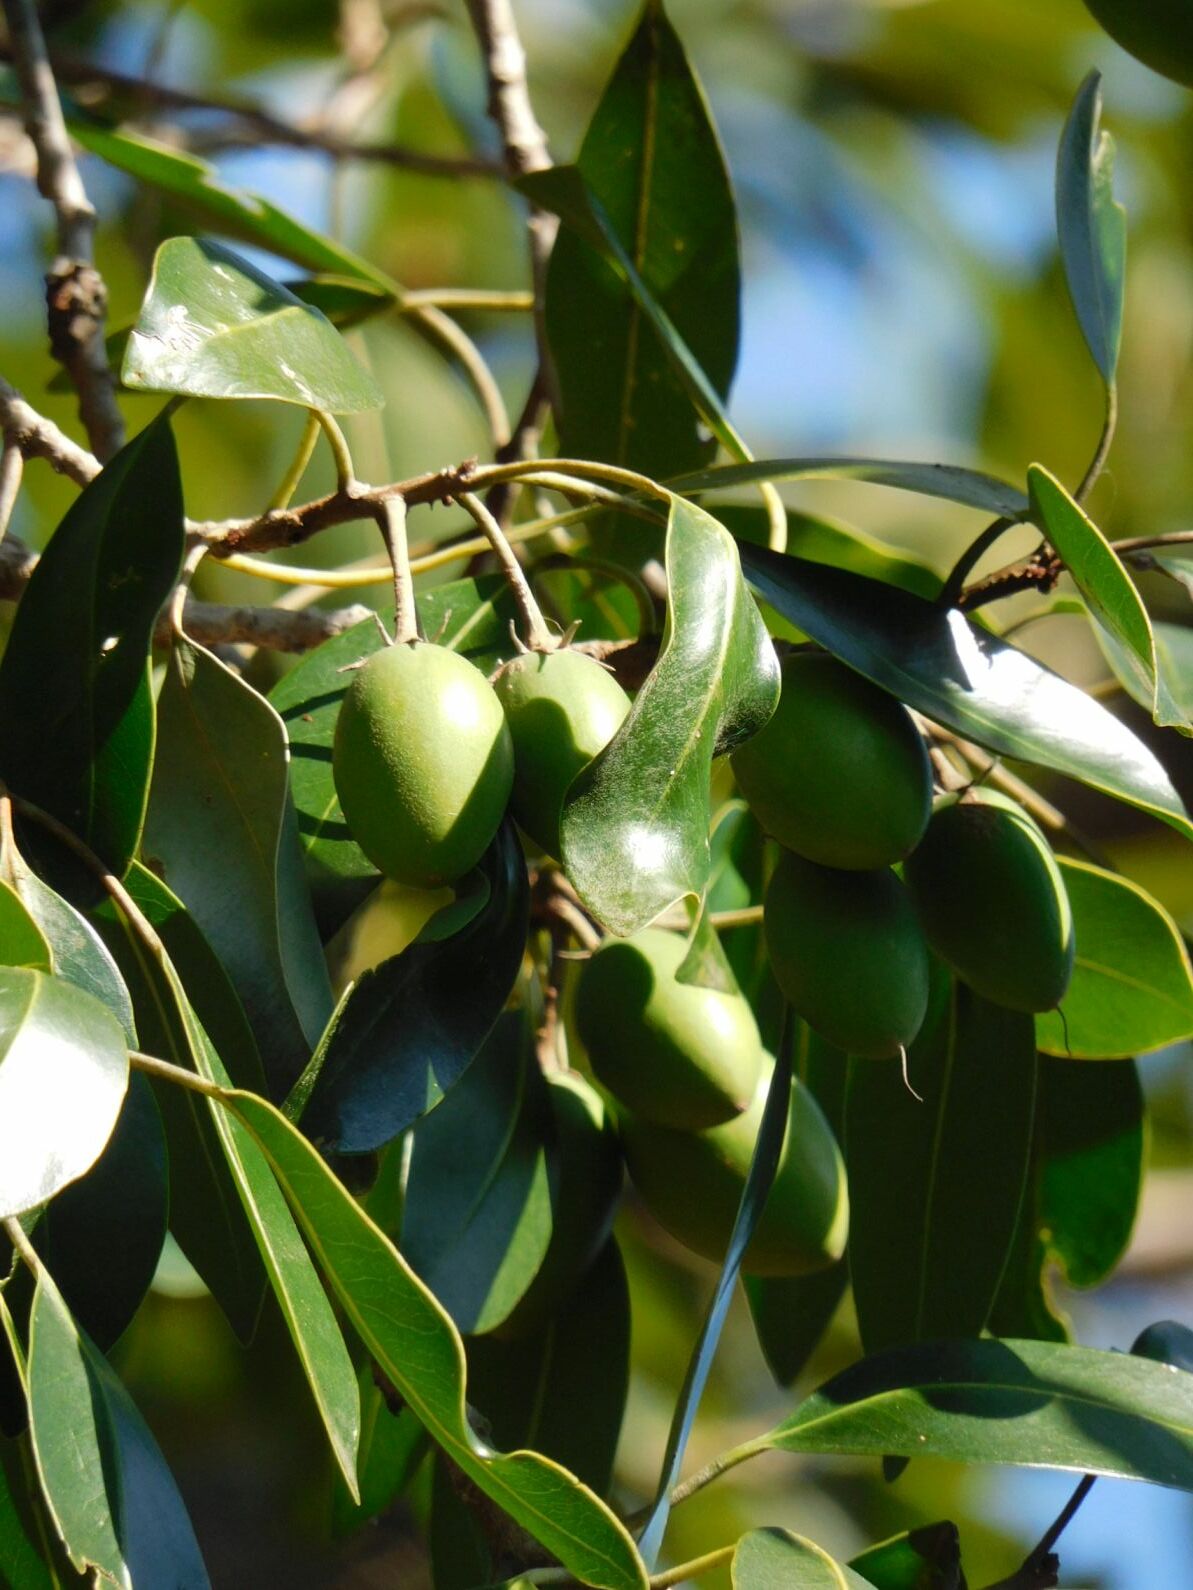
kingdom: Plantae
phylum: Tracheophyta
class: Magnoliopsida
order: Ericales
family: Sapotaceae
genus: Mimusops
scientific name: Mimusops zeyheri
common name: Transvaal red milkwood
